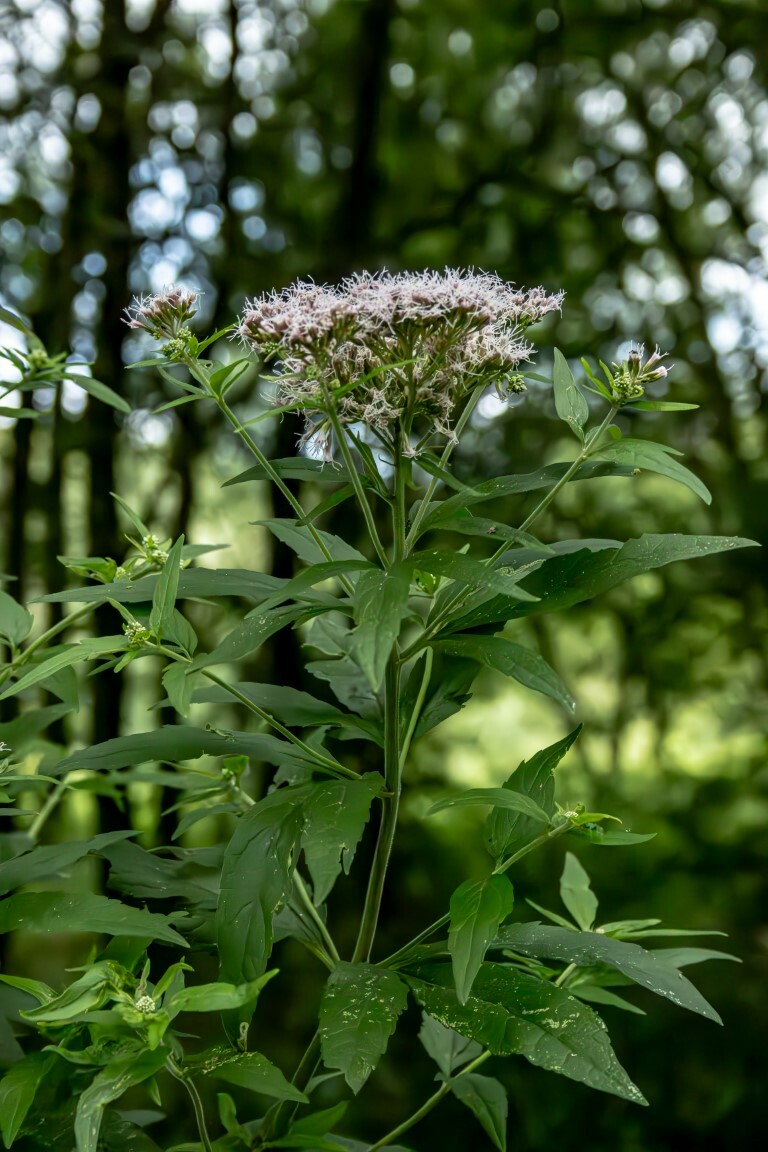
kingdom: Plantae
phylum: Tracheophyta
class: Magnoliopsida
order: Asterales
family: Asteraceae
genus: Eupatorium
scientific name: Eupatorium cannabinum
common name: Hemp-agrimony
